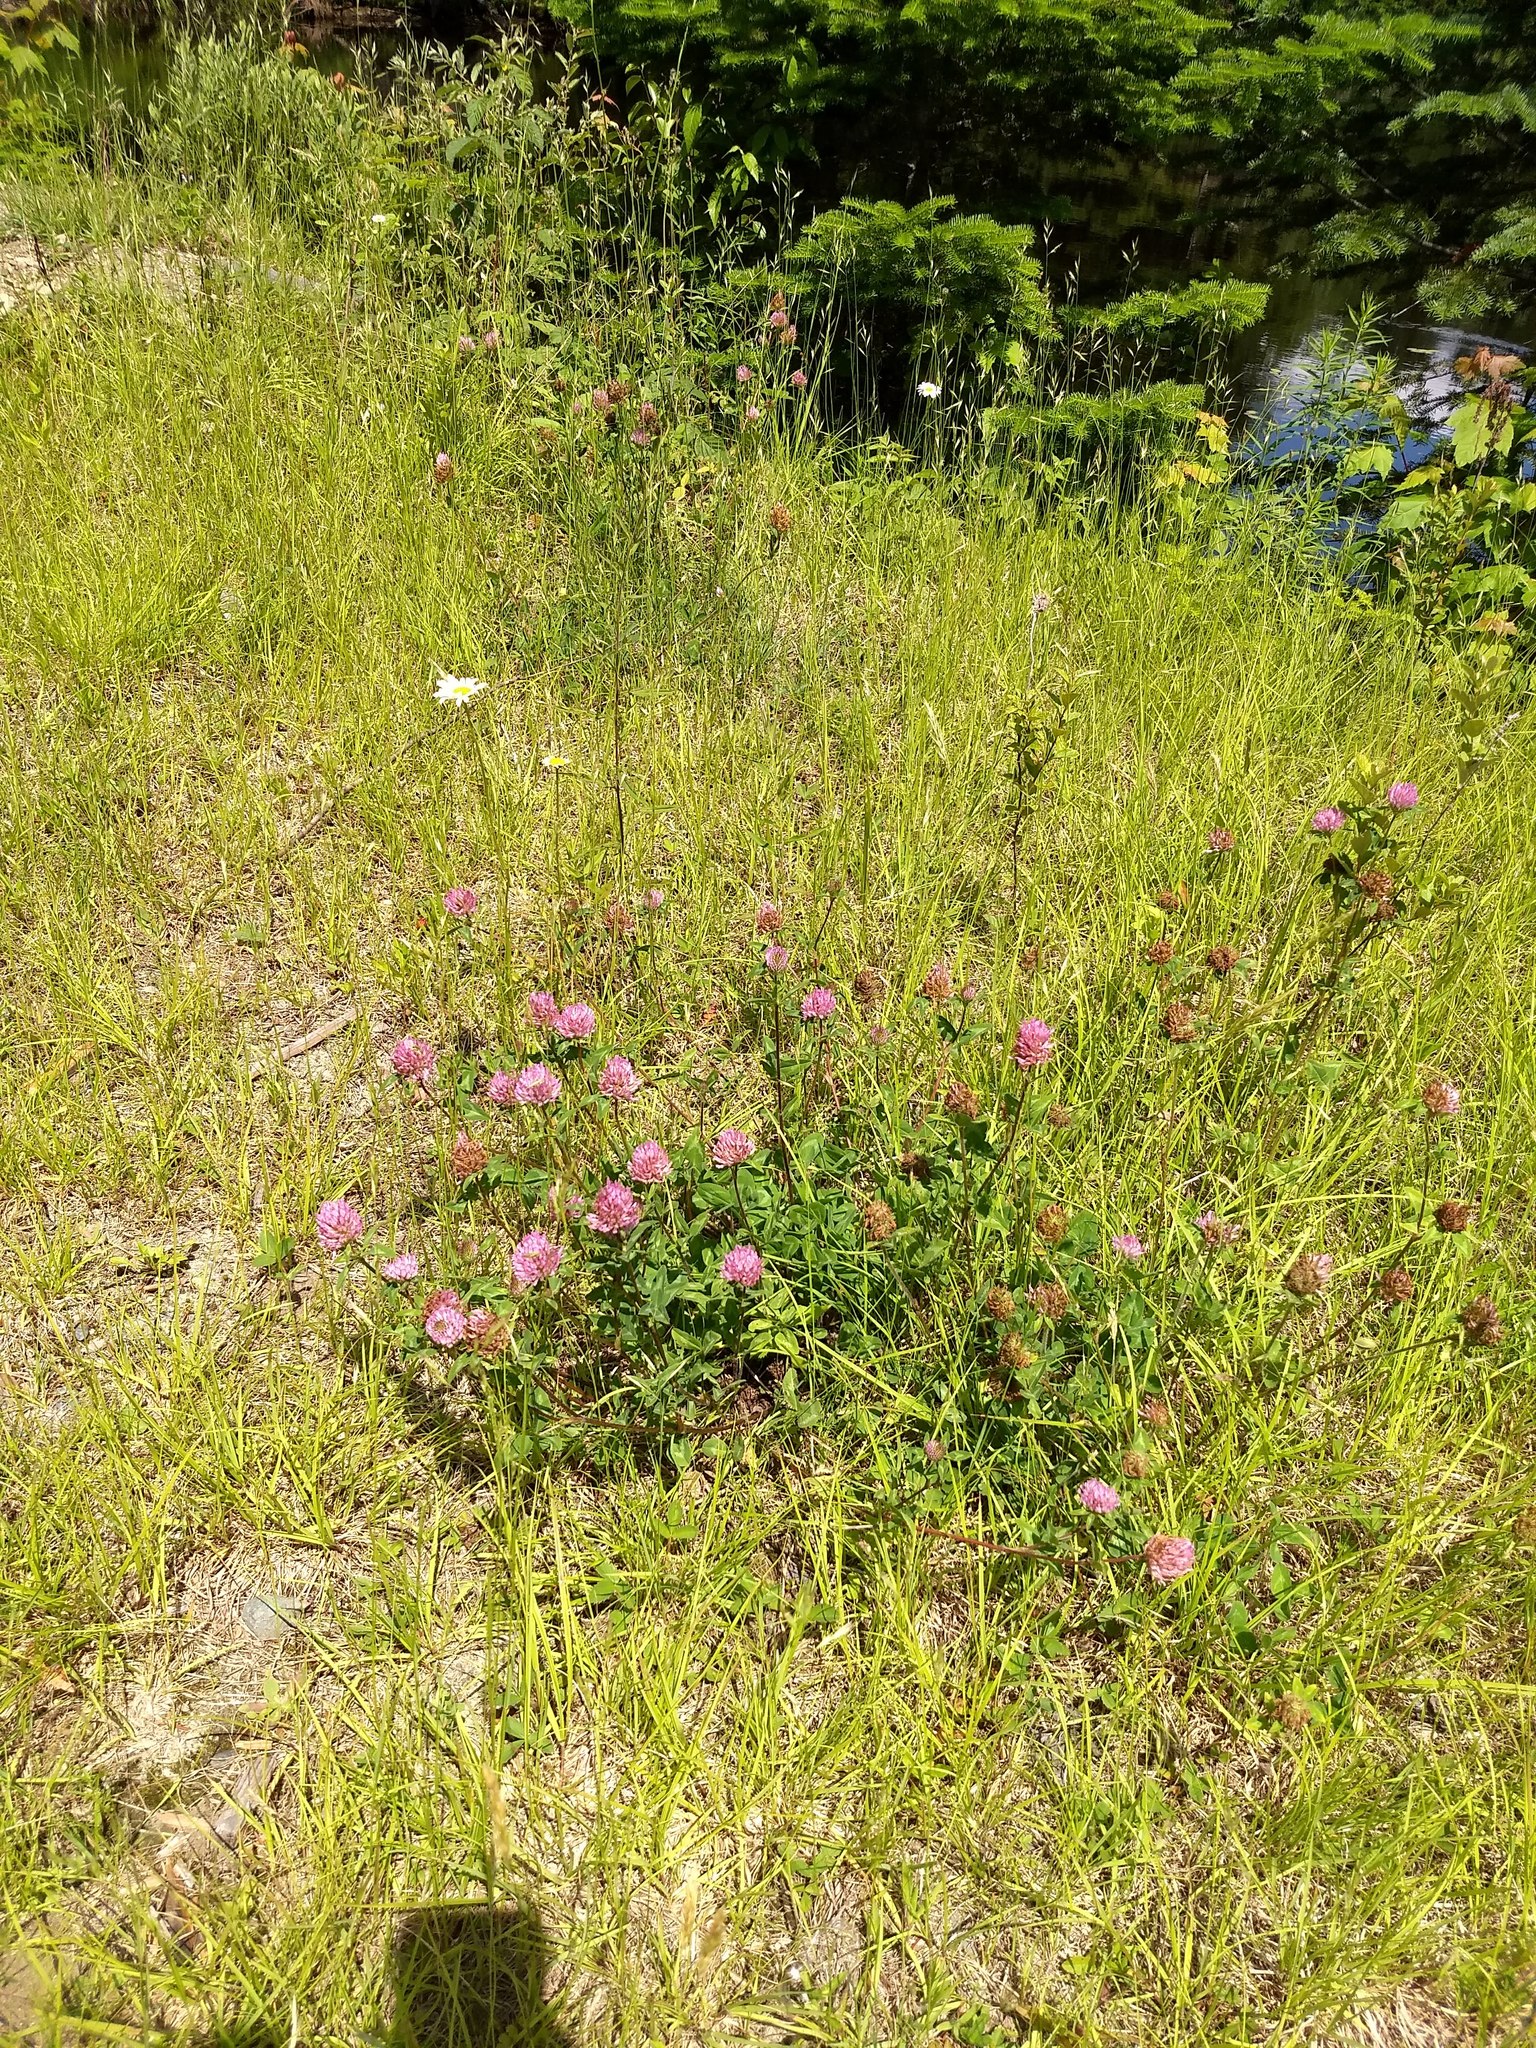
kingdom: Plantae
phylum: Tracheophyta
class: Magnoliopsida
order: Fabales
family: Fabaceae
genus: Trifolium
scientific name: Trifolium pratense
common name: Red clover
